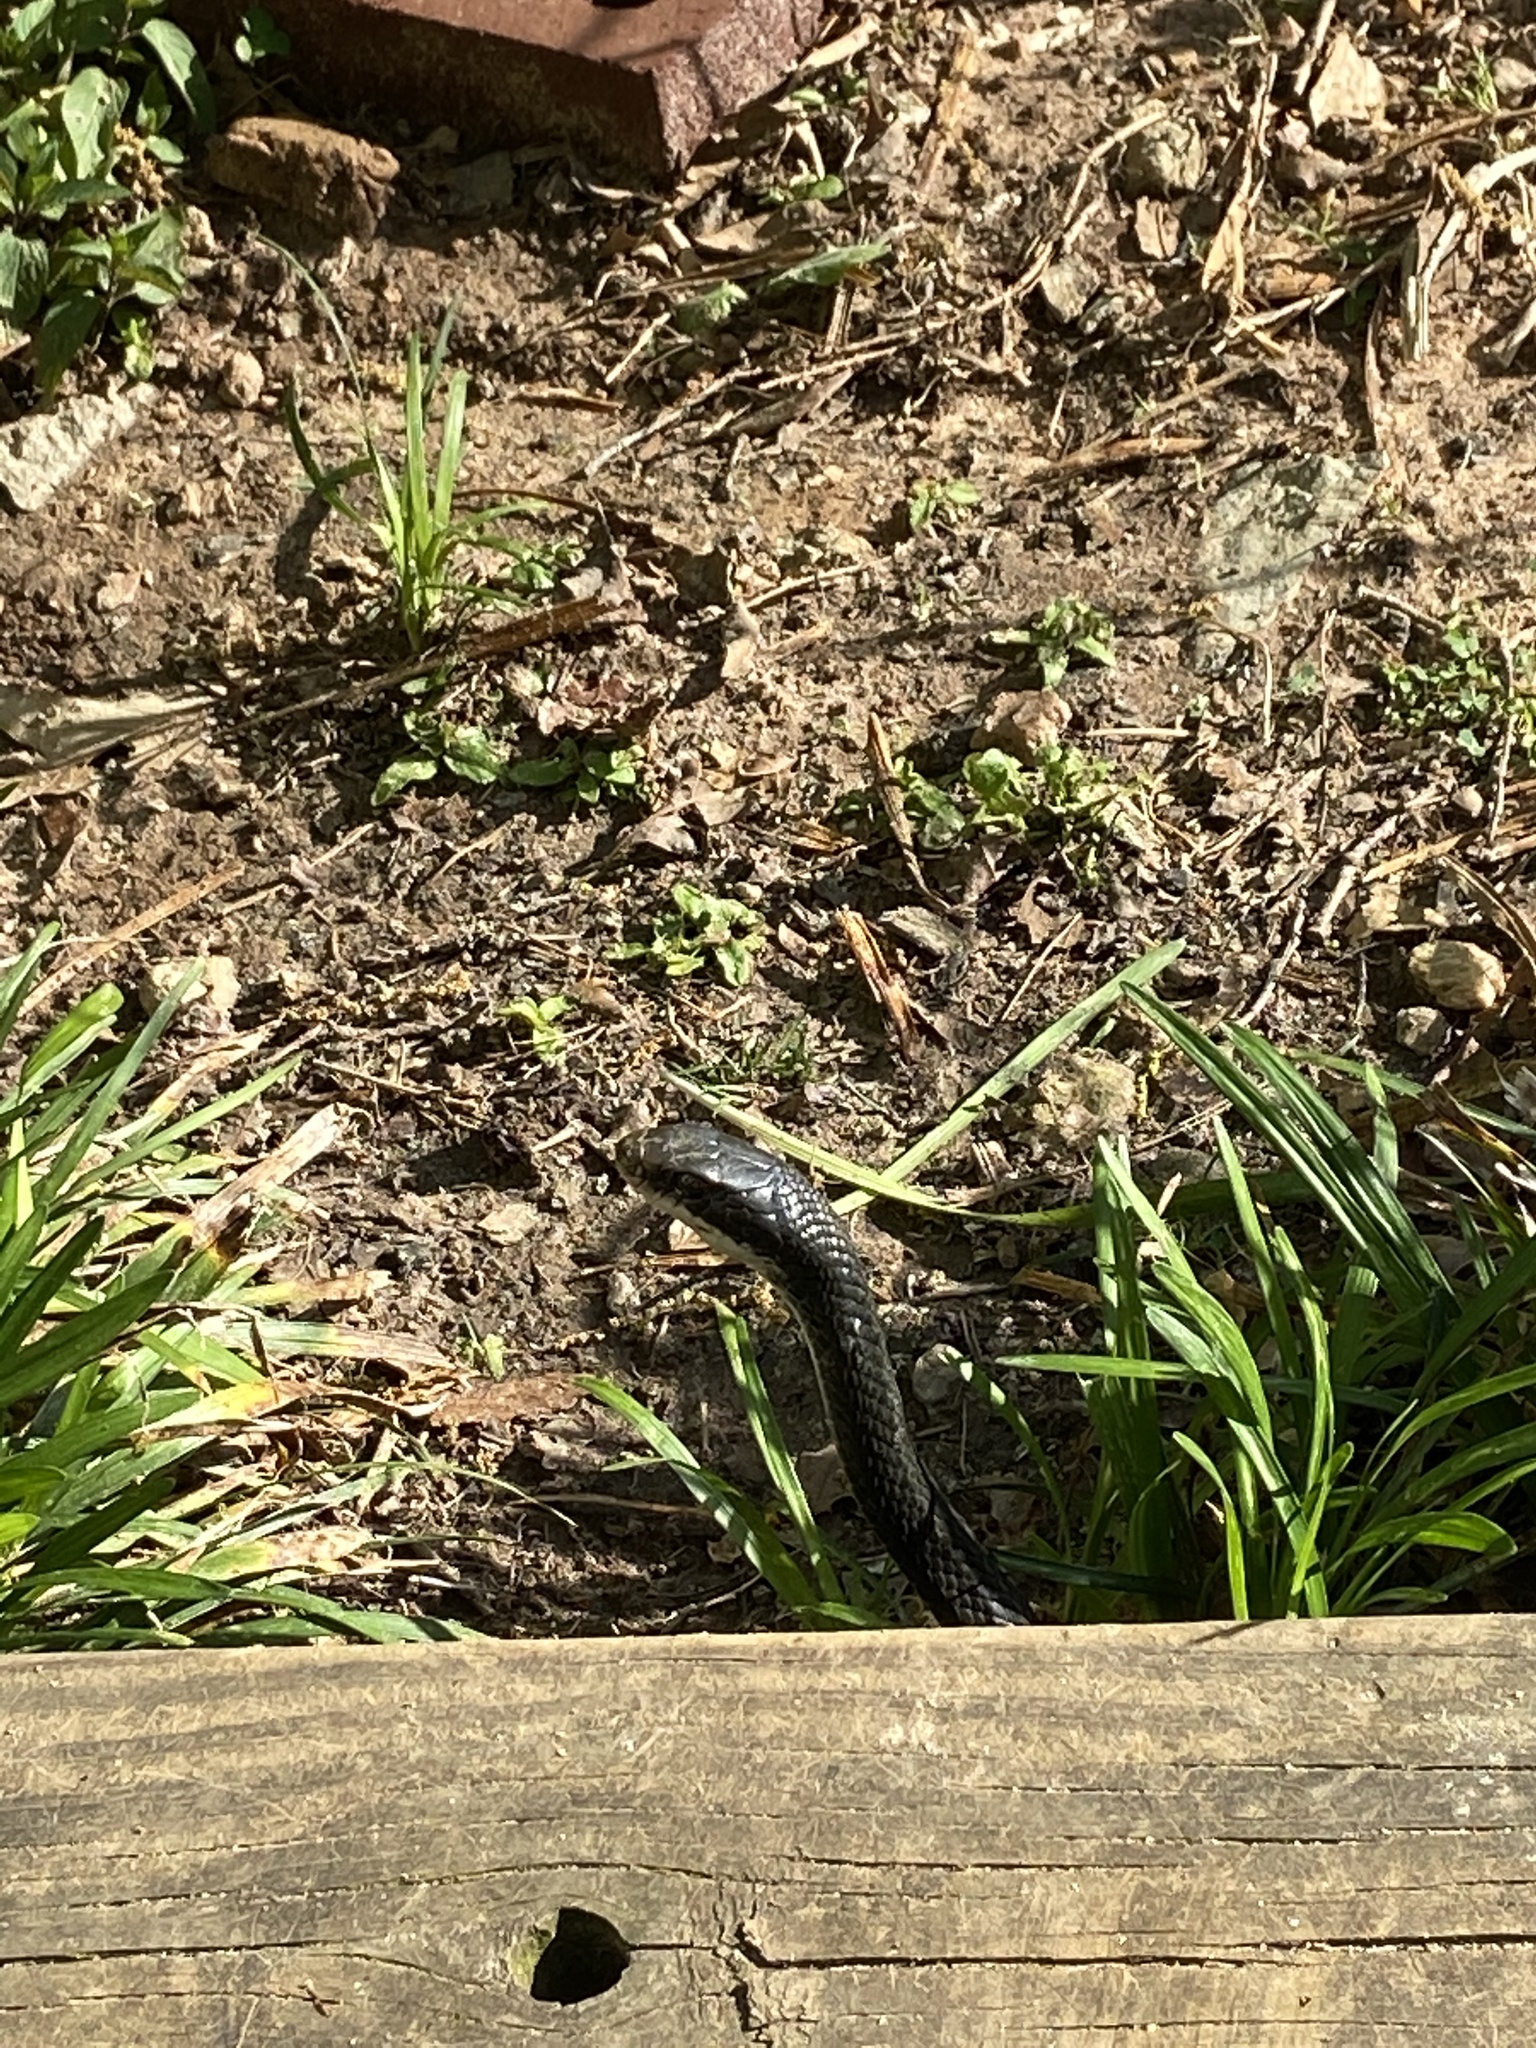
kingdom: Animalia
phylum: Chordata
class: Squamata
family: Colubridae
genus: Coluber
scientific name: Coluber constrictor
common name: Eastern racer
